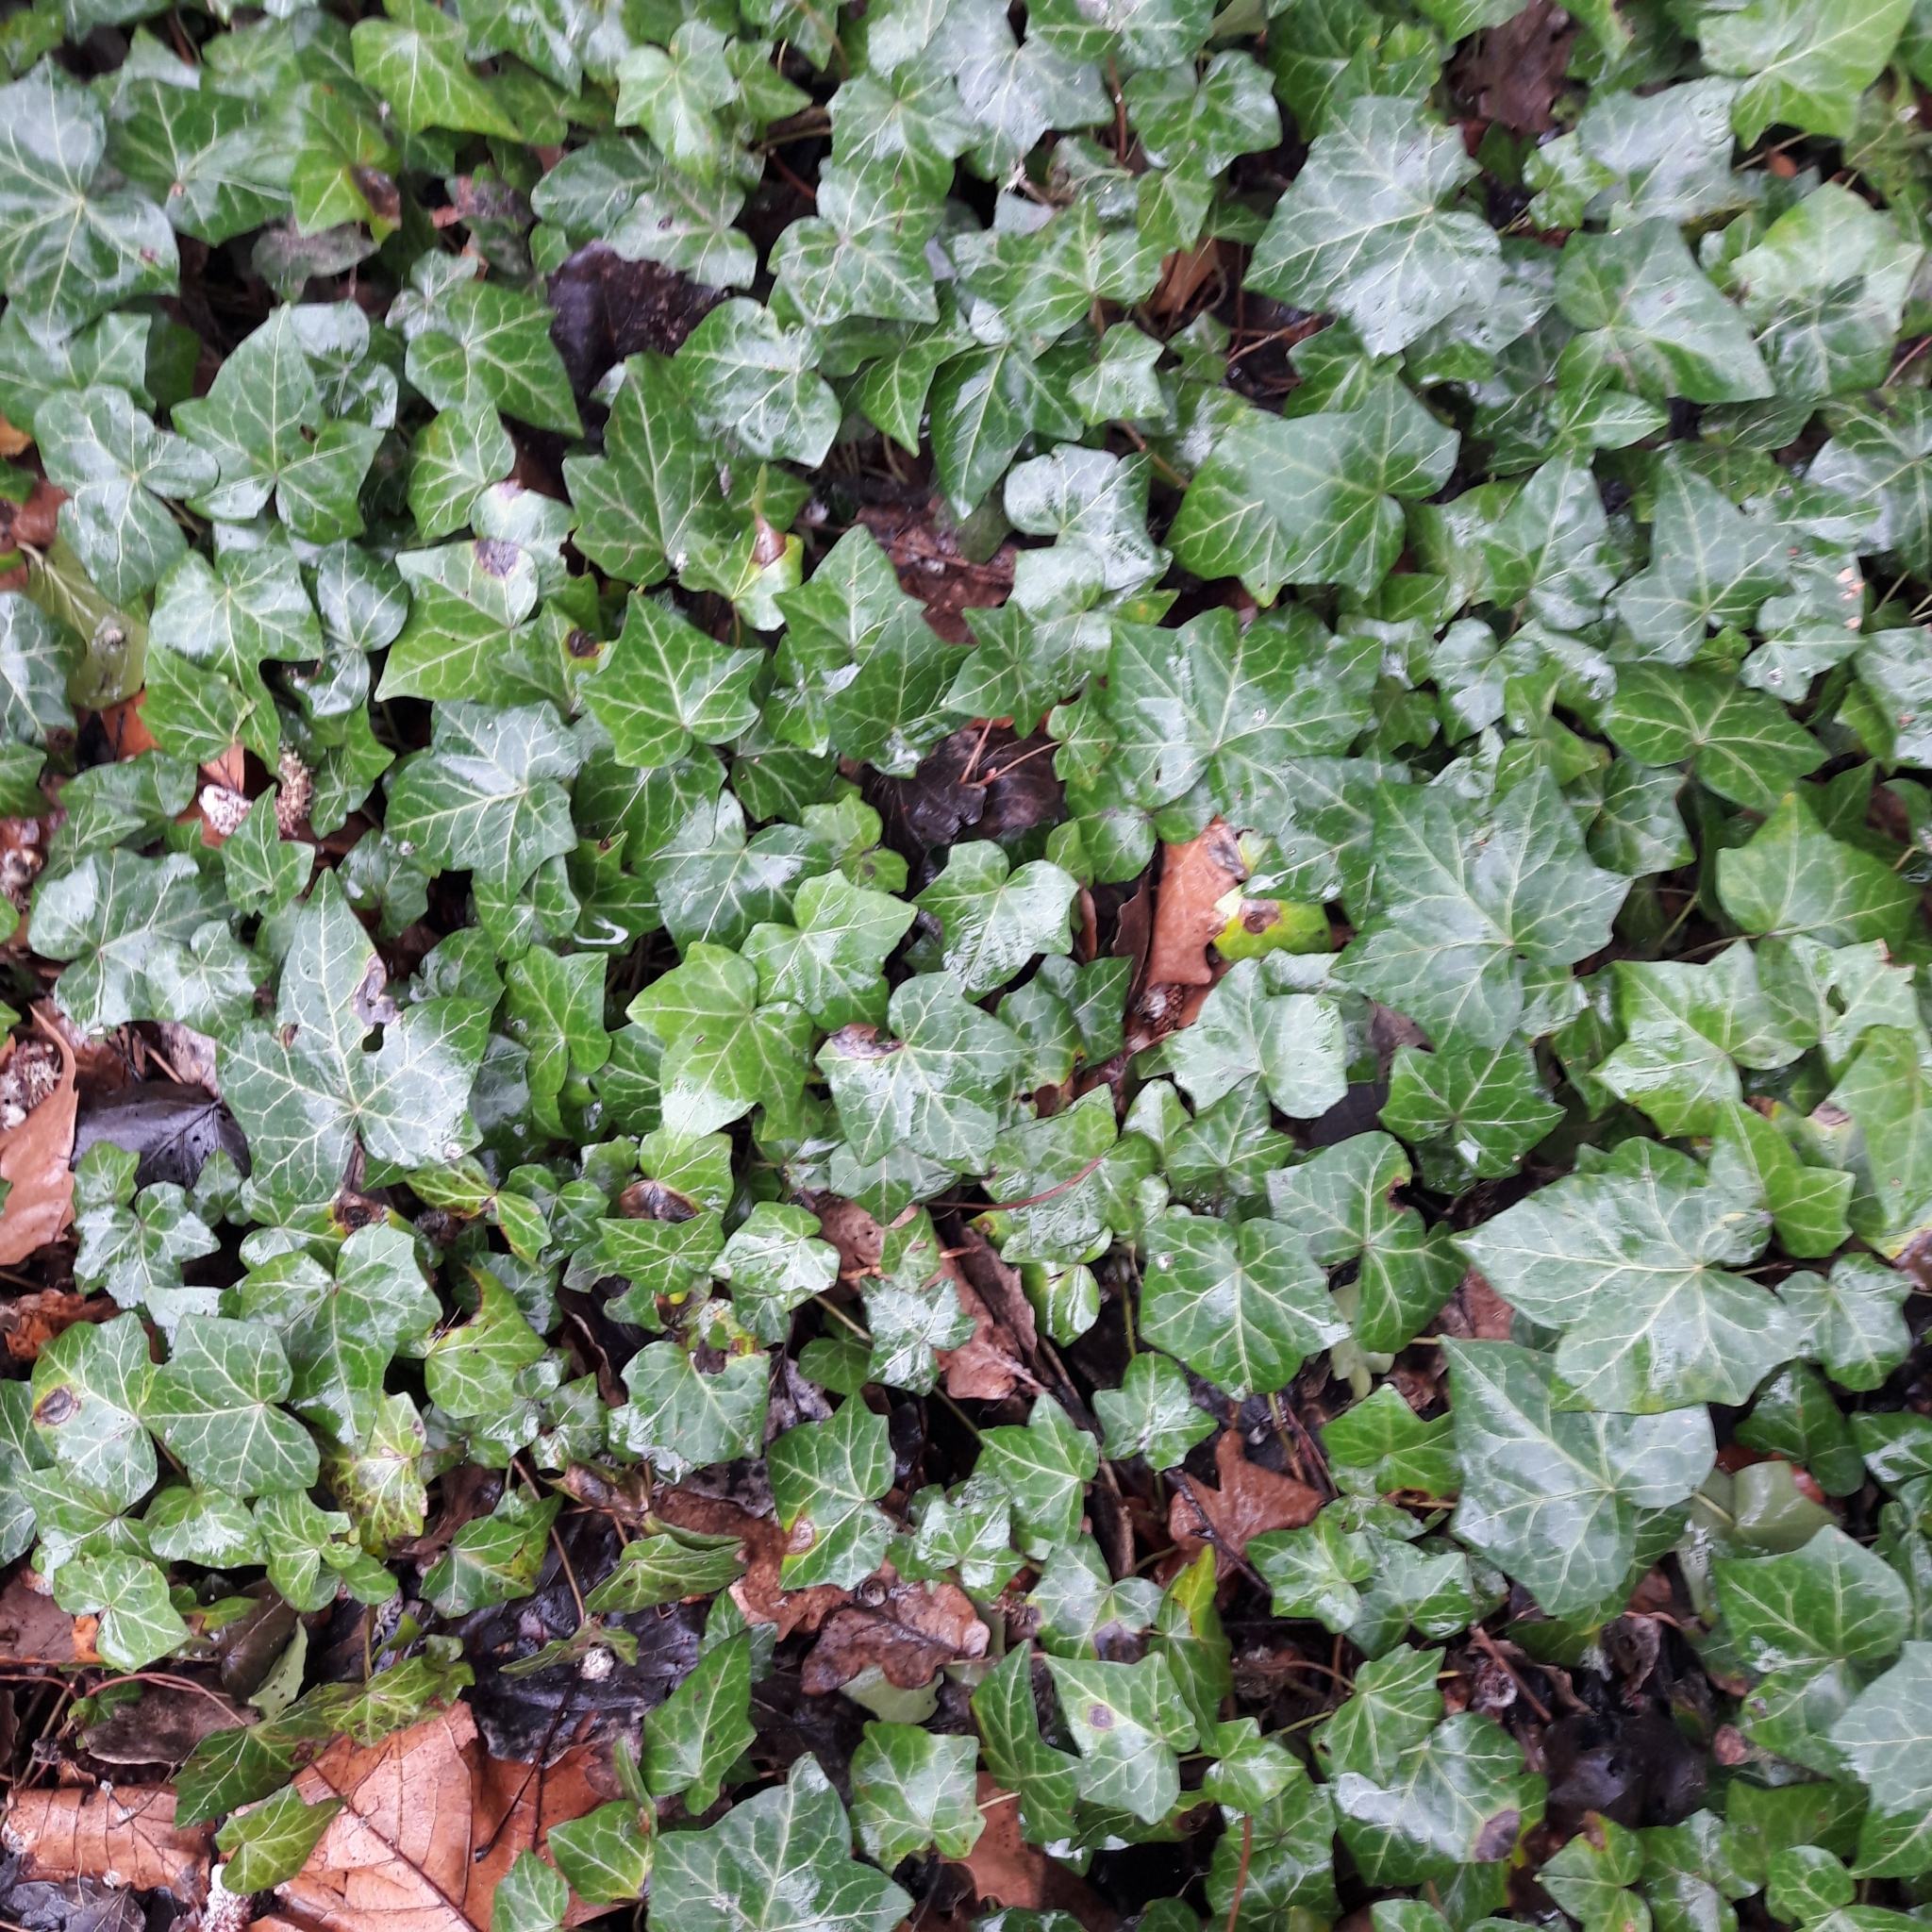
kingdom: Plantae
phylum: Tracheophyta
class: Magnoliopsida
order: Apiales
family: Araliaceae
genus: Hedera
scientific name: Hedera helix
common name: Ivy
